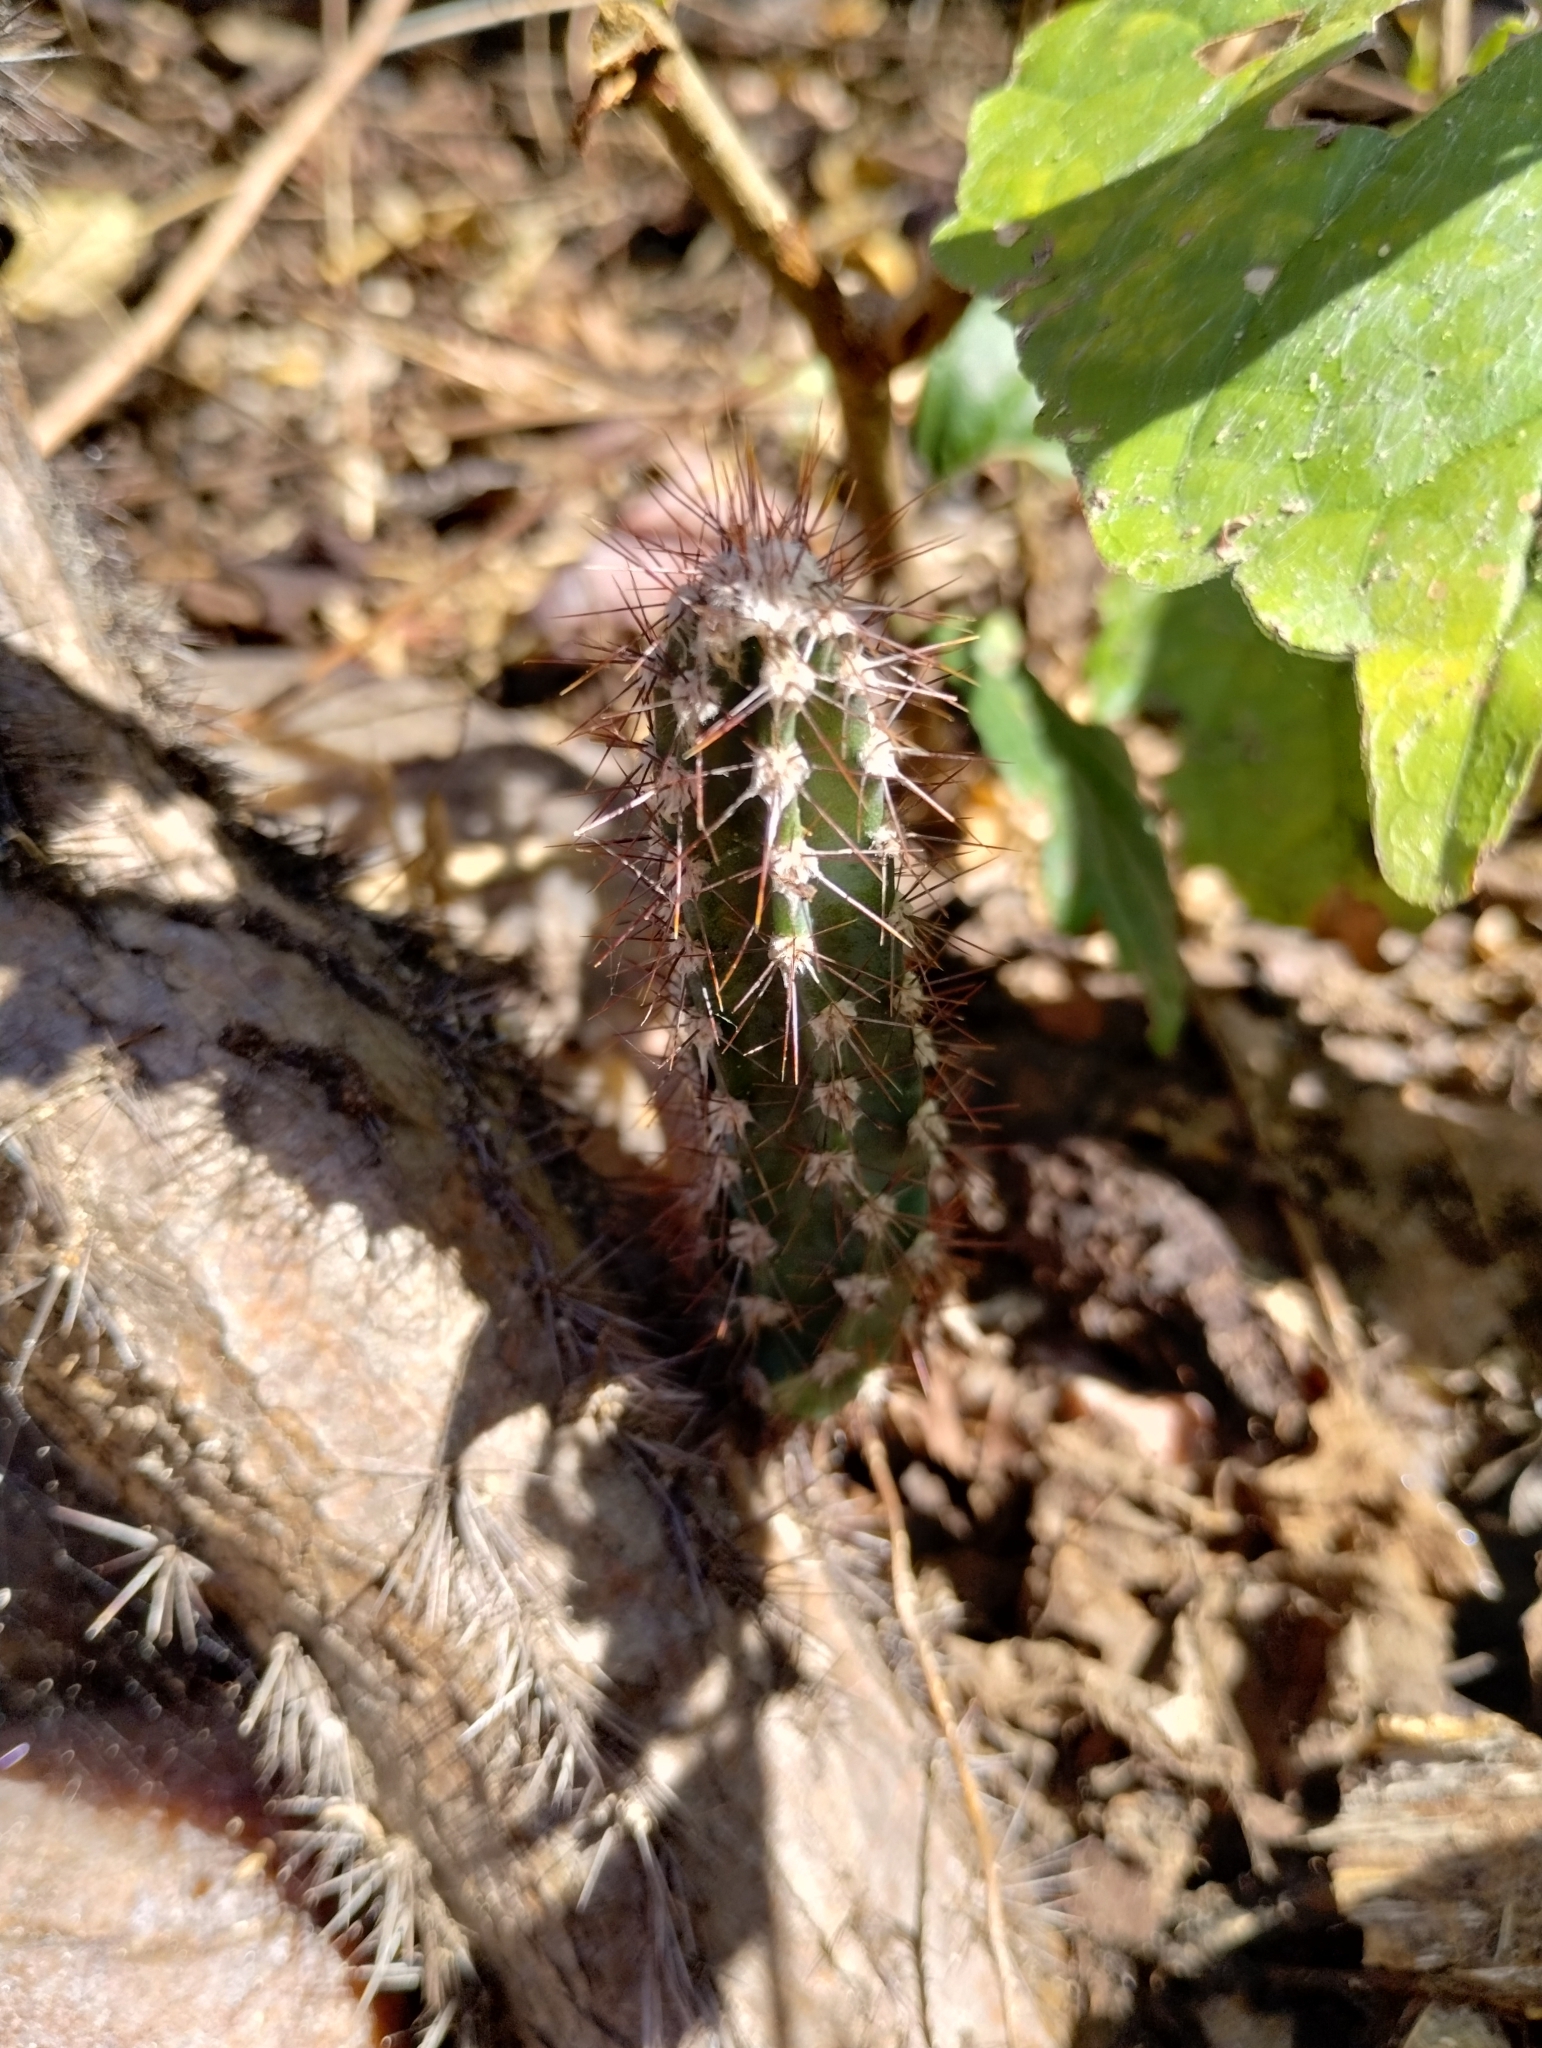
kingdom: Plantae
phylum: Tracheophyta
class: Magnoliopsida
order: Caryophyllales
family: Cactaceae
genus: Cereus
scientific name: Cereus jamacaru
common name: Queen-of-the-night
